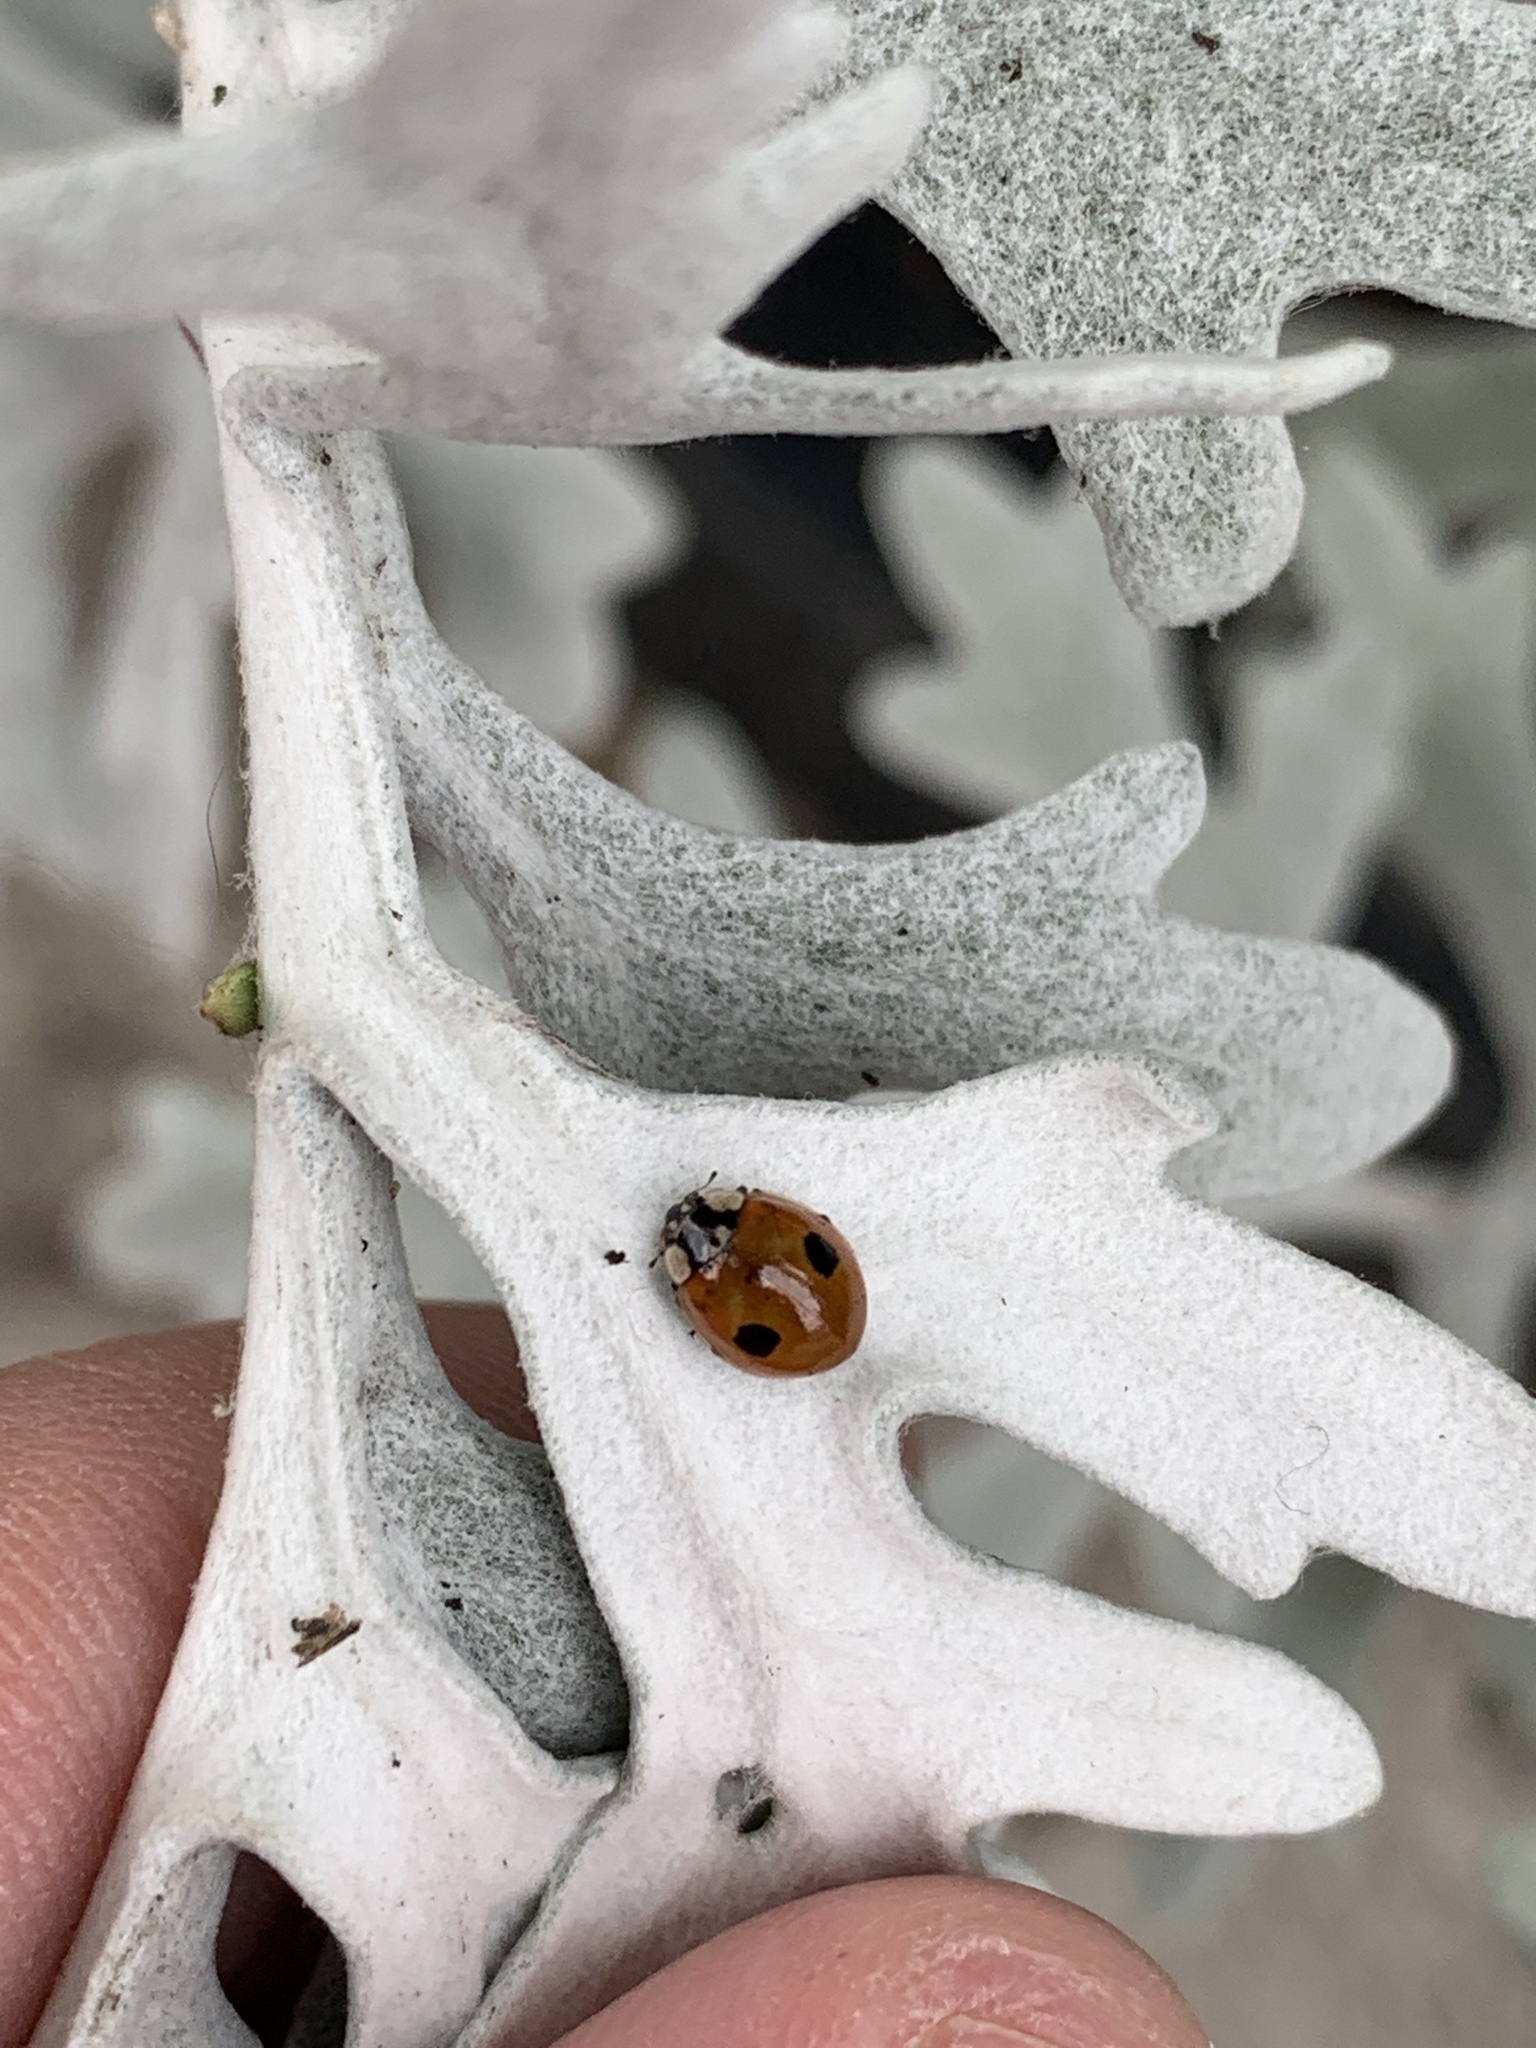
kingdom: Animalia
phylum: Arthropoda
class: Insecta
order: Coleoptera
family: Coccinellidae
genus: Adalia
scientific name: Adalia bipunctata
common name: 2-spot ladybird
